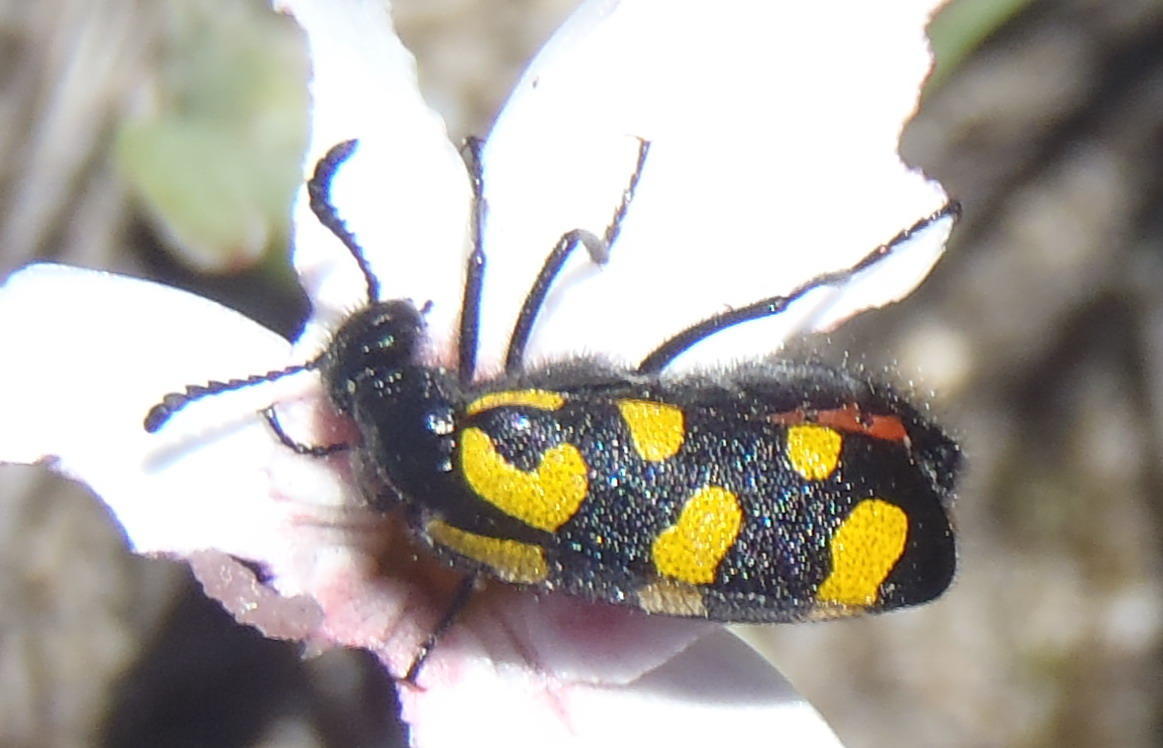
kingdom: Animalia
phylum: Arthropoda
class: Insecta
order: Coleoptera
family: Meloidae
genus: Ceroctis
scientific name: Ceroctis capensis
